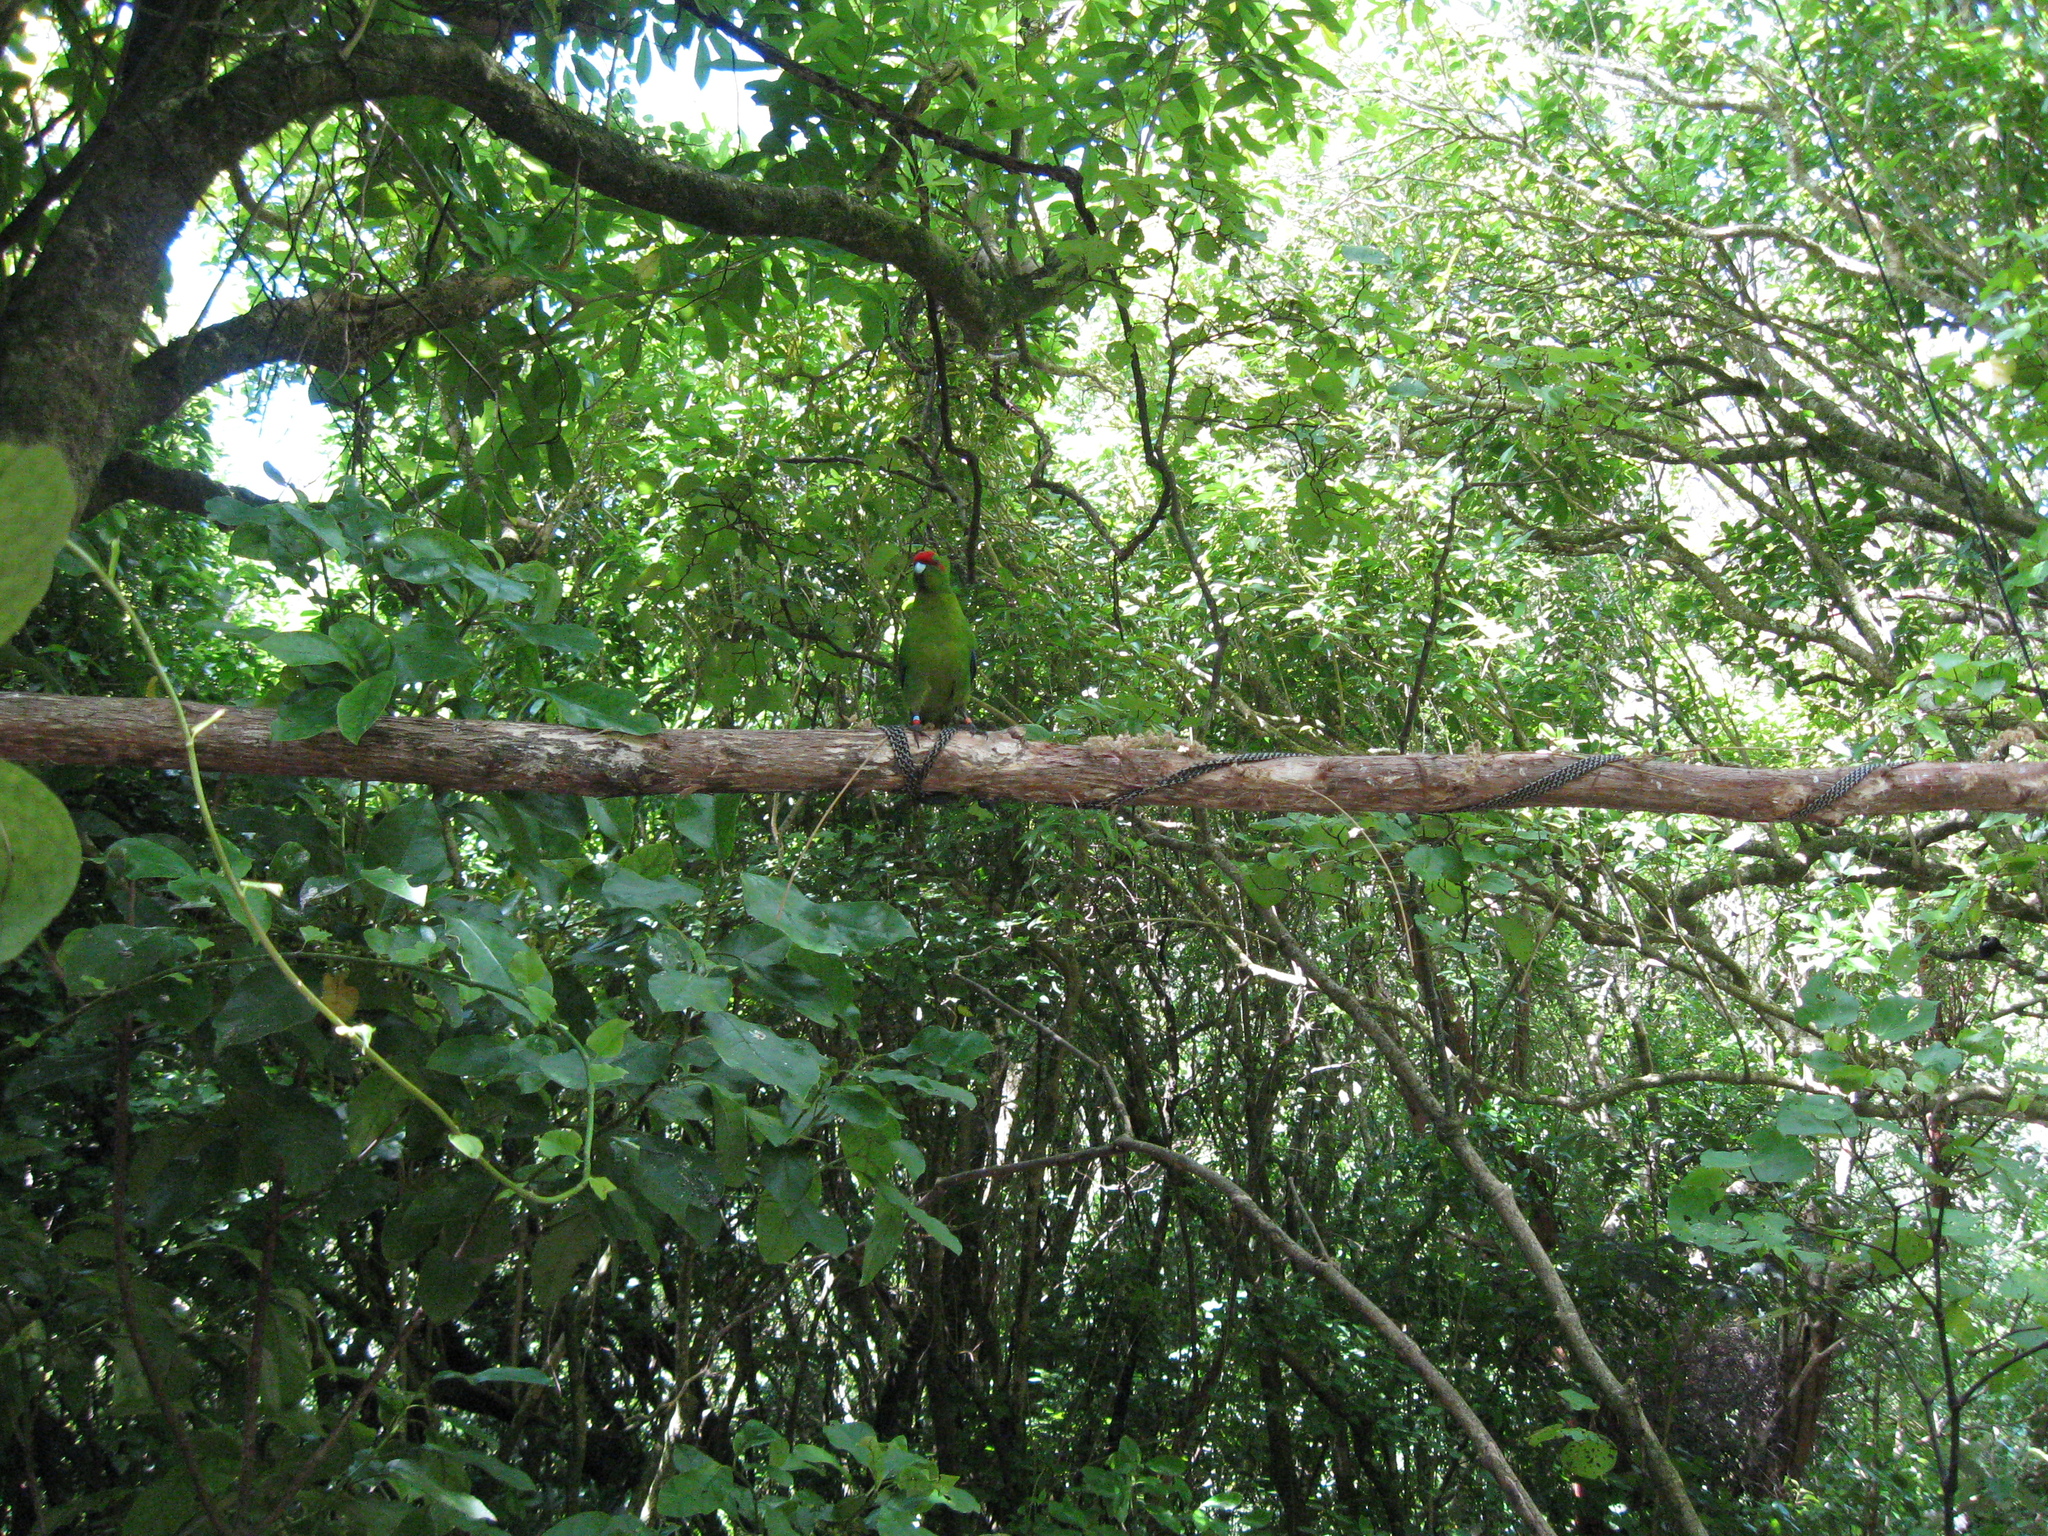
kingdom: Animalia
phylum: Chordata
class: Aves
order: Psittaciformes
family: Psittacidae
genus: Cyanoramphus
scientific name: Cyanoramphus novaezelandiae
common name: Red-fronted parakeet
